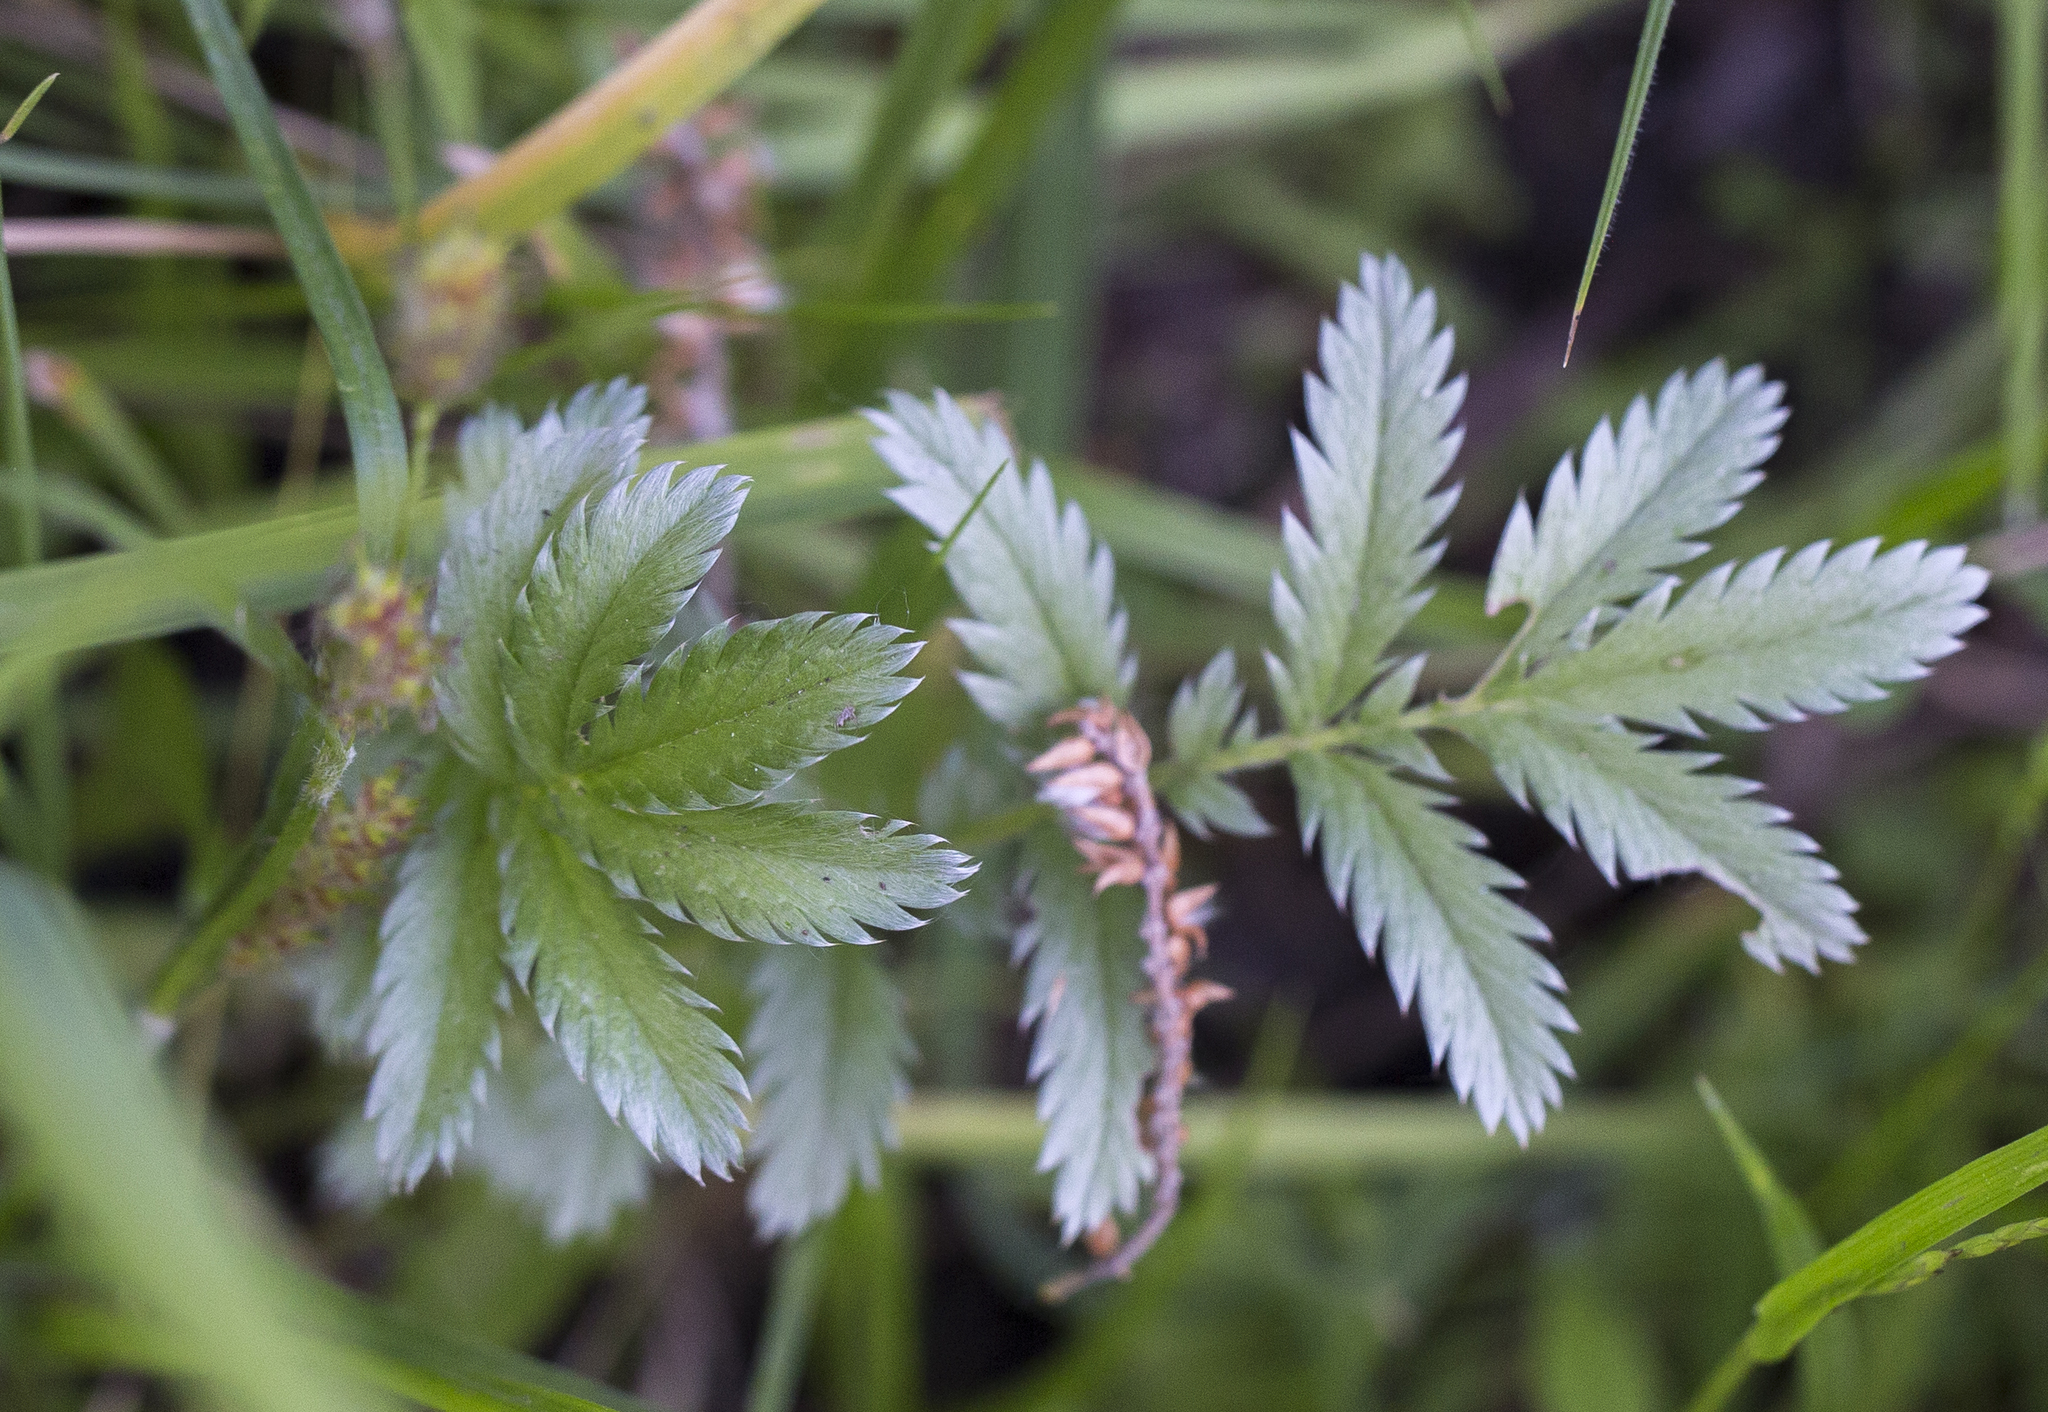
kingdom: Plantae
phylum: Tracheophyta
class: Magnoliopsida
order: Rosales
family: Rosaceae
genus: Argentina
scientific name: Argentina anserina
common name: Common silverweed
